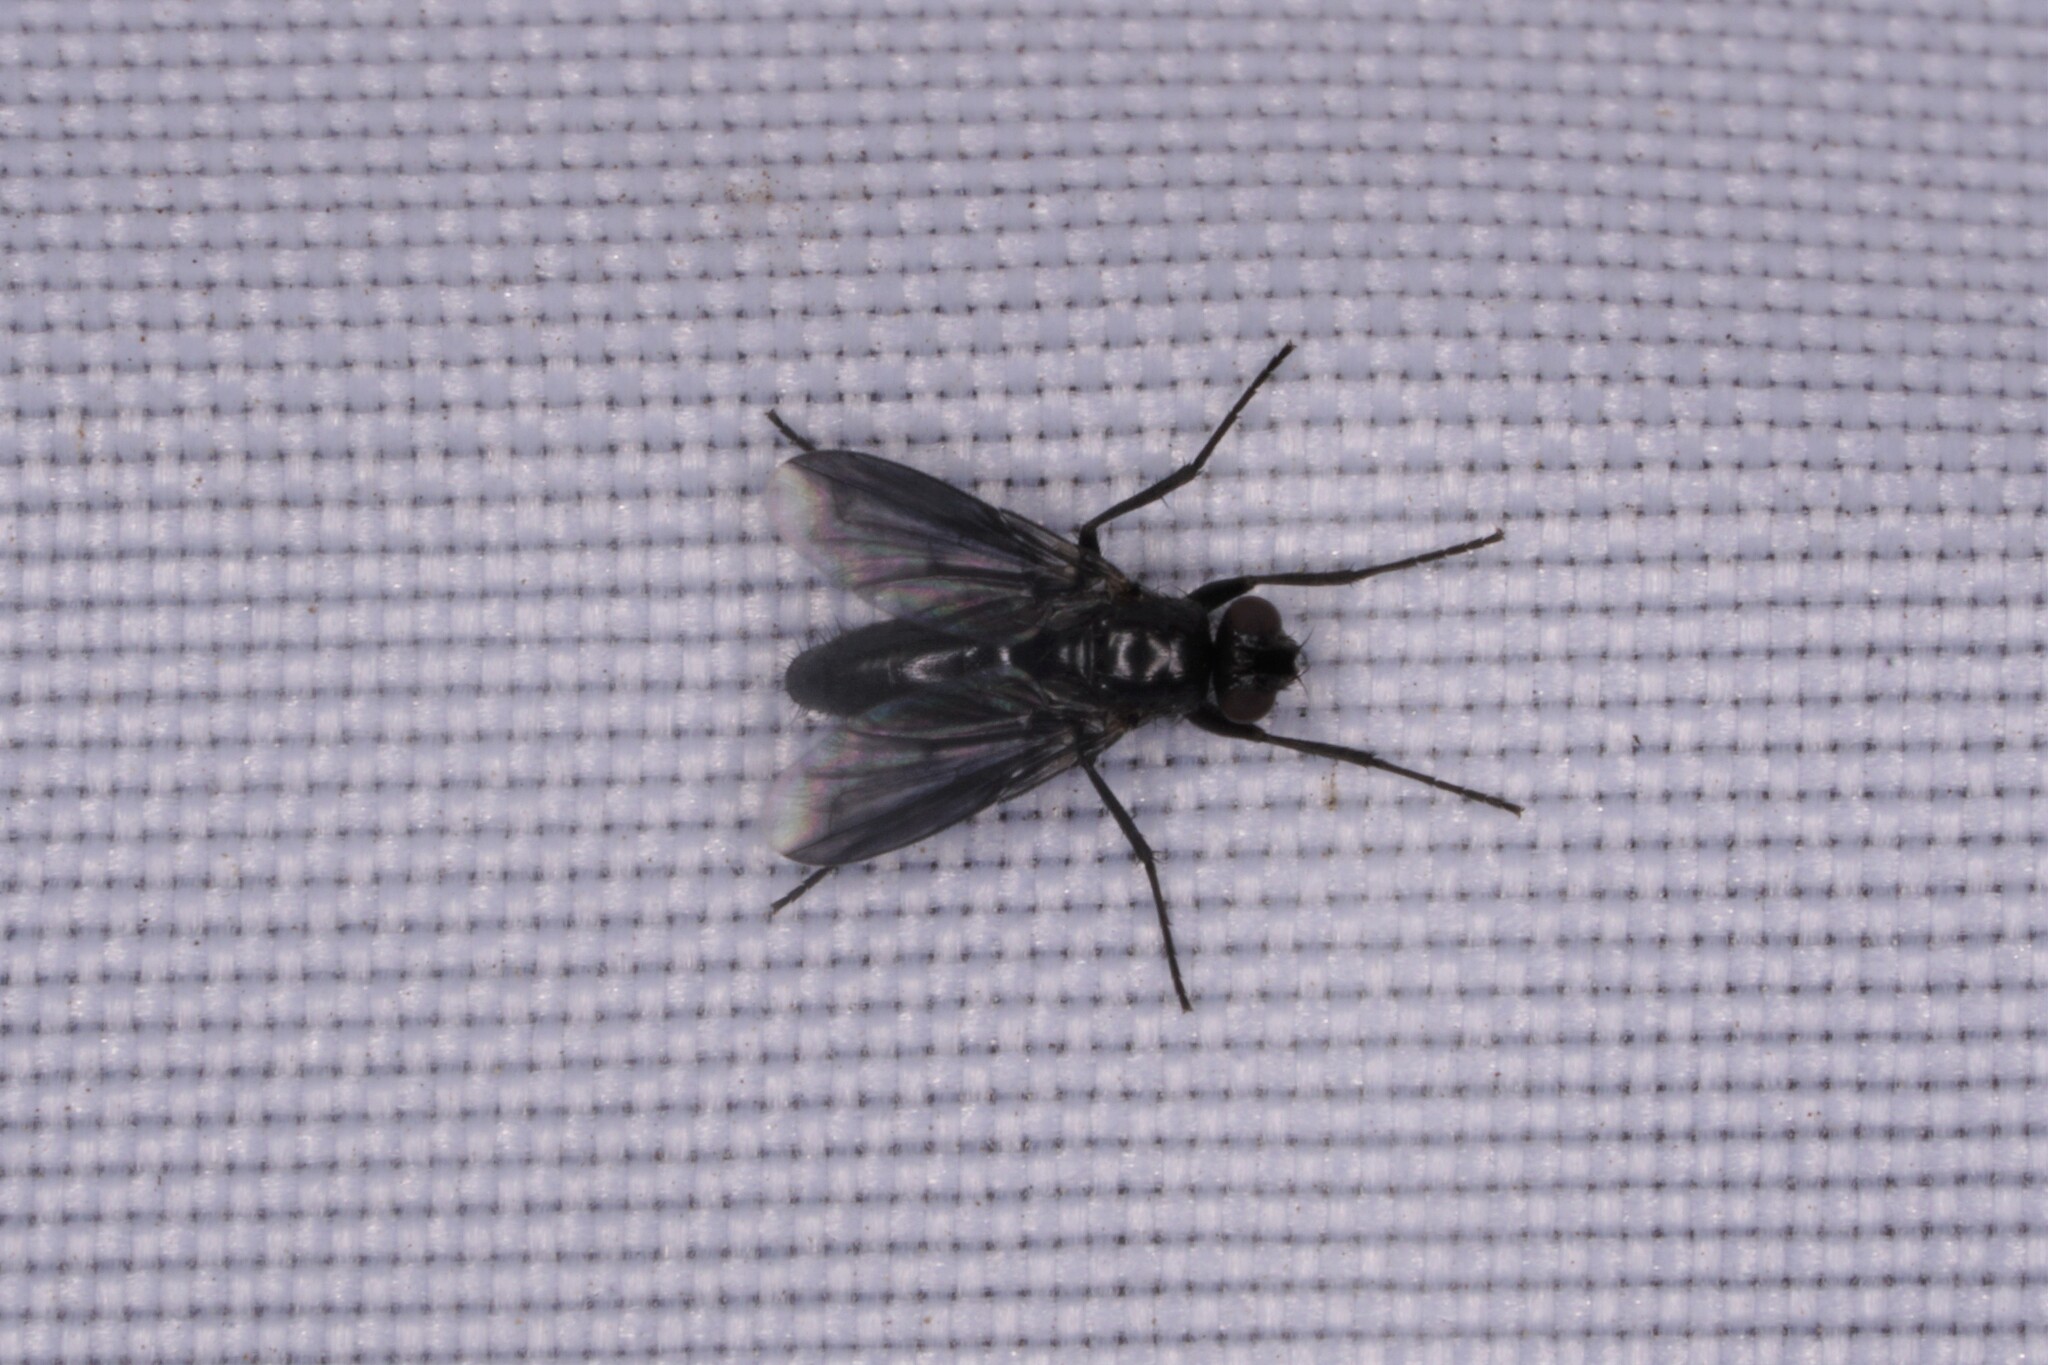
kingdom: Animalia
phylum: Arthropoda
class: Insecta
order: Diptera
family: Calliphoridae
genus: Melanophora
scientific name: Melanophora roralis
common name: Smoky-winged woodlouse-fly
